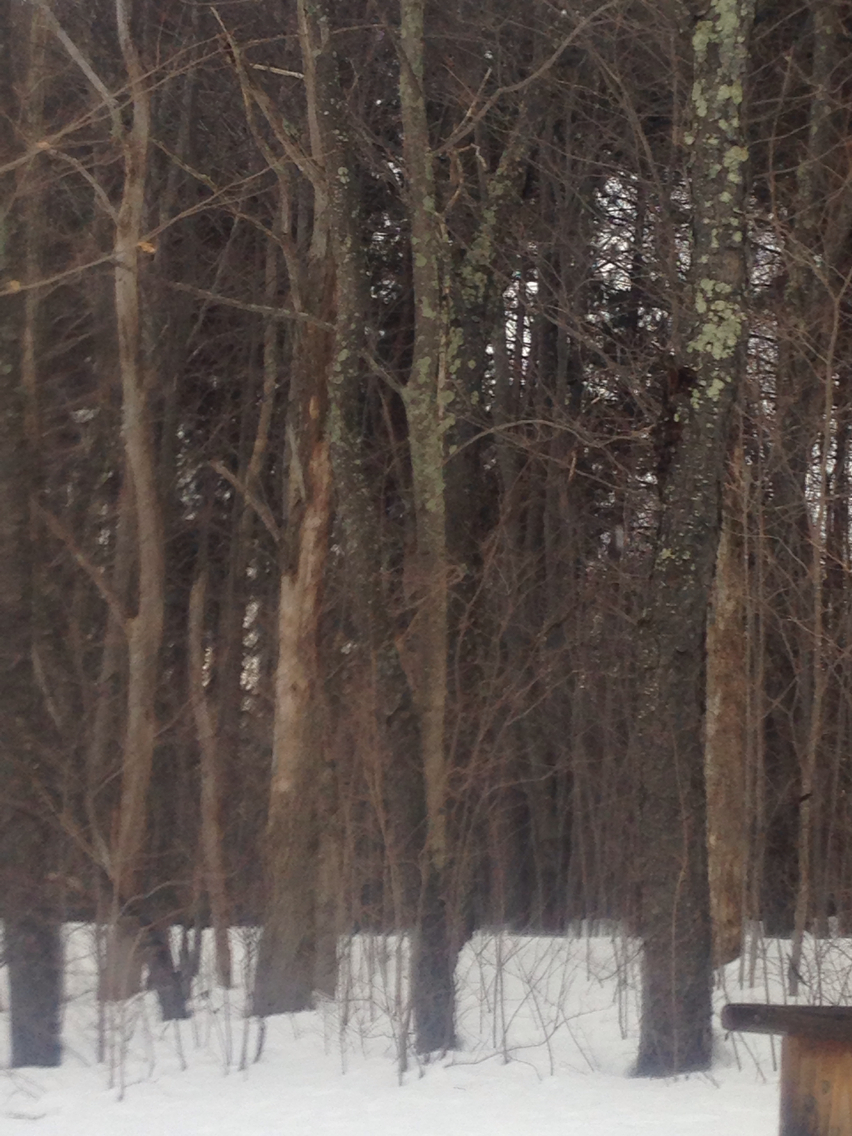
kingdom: Plantae
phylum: Tracheophyta
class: Magnoliopsida
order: Rosales
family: Rosaceae
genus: Prunus
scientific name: Prunus serotina
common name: Black cherry
